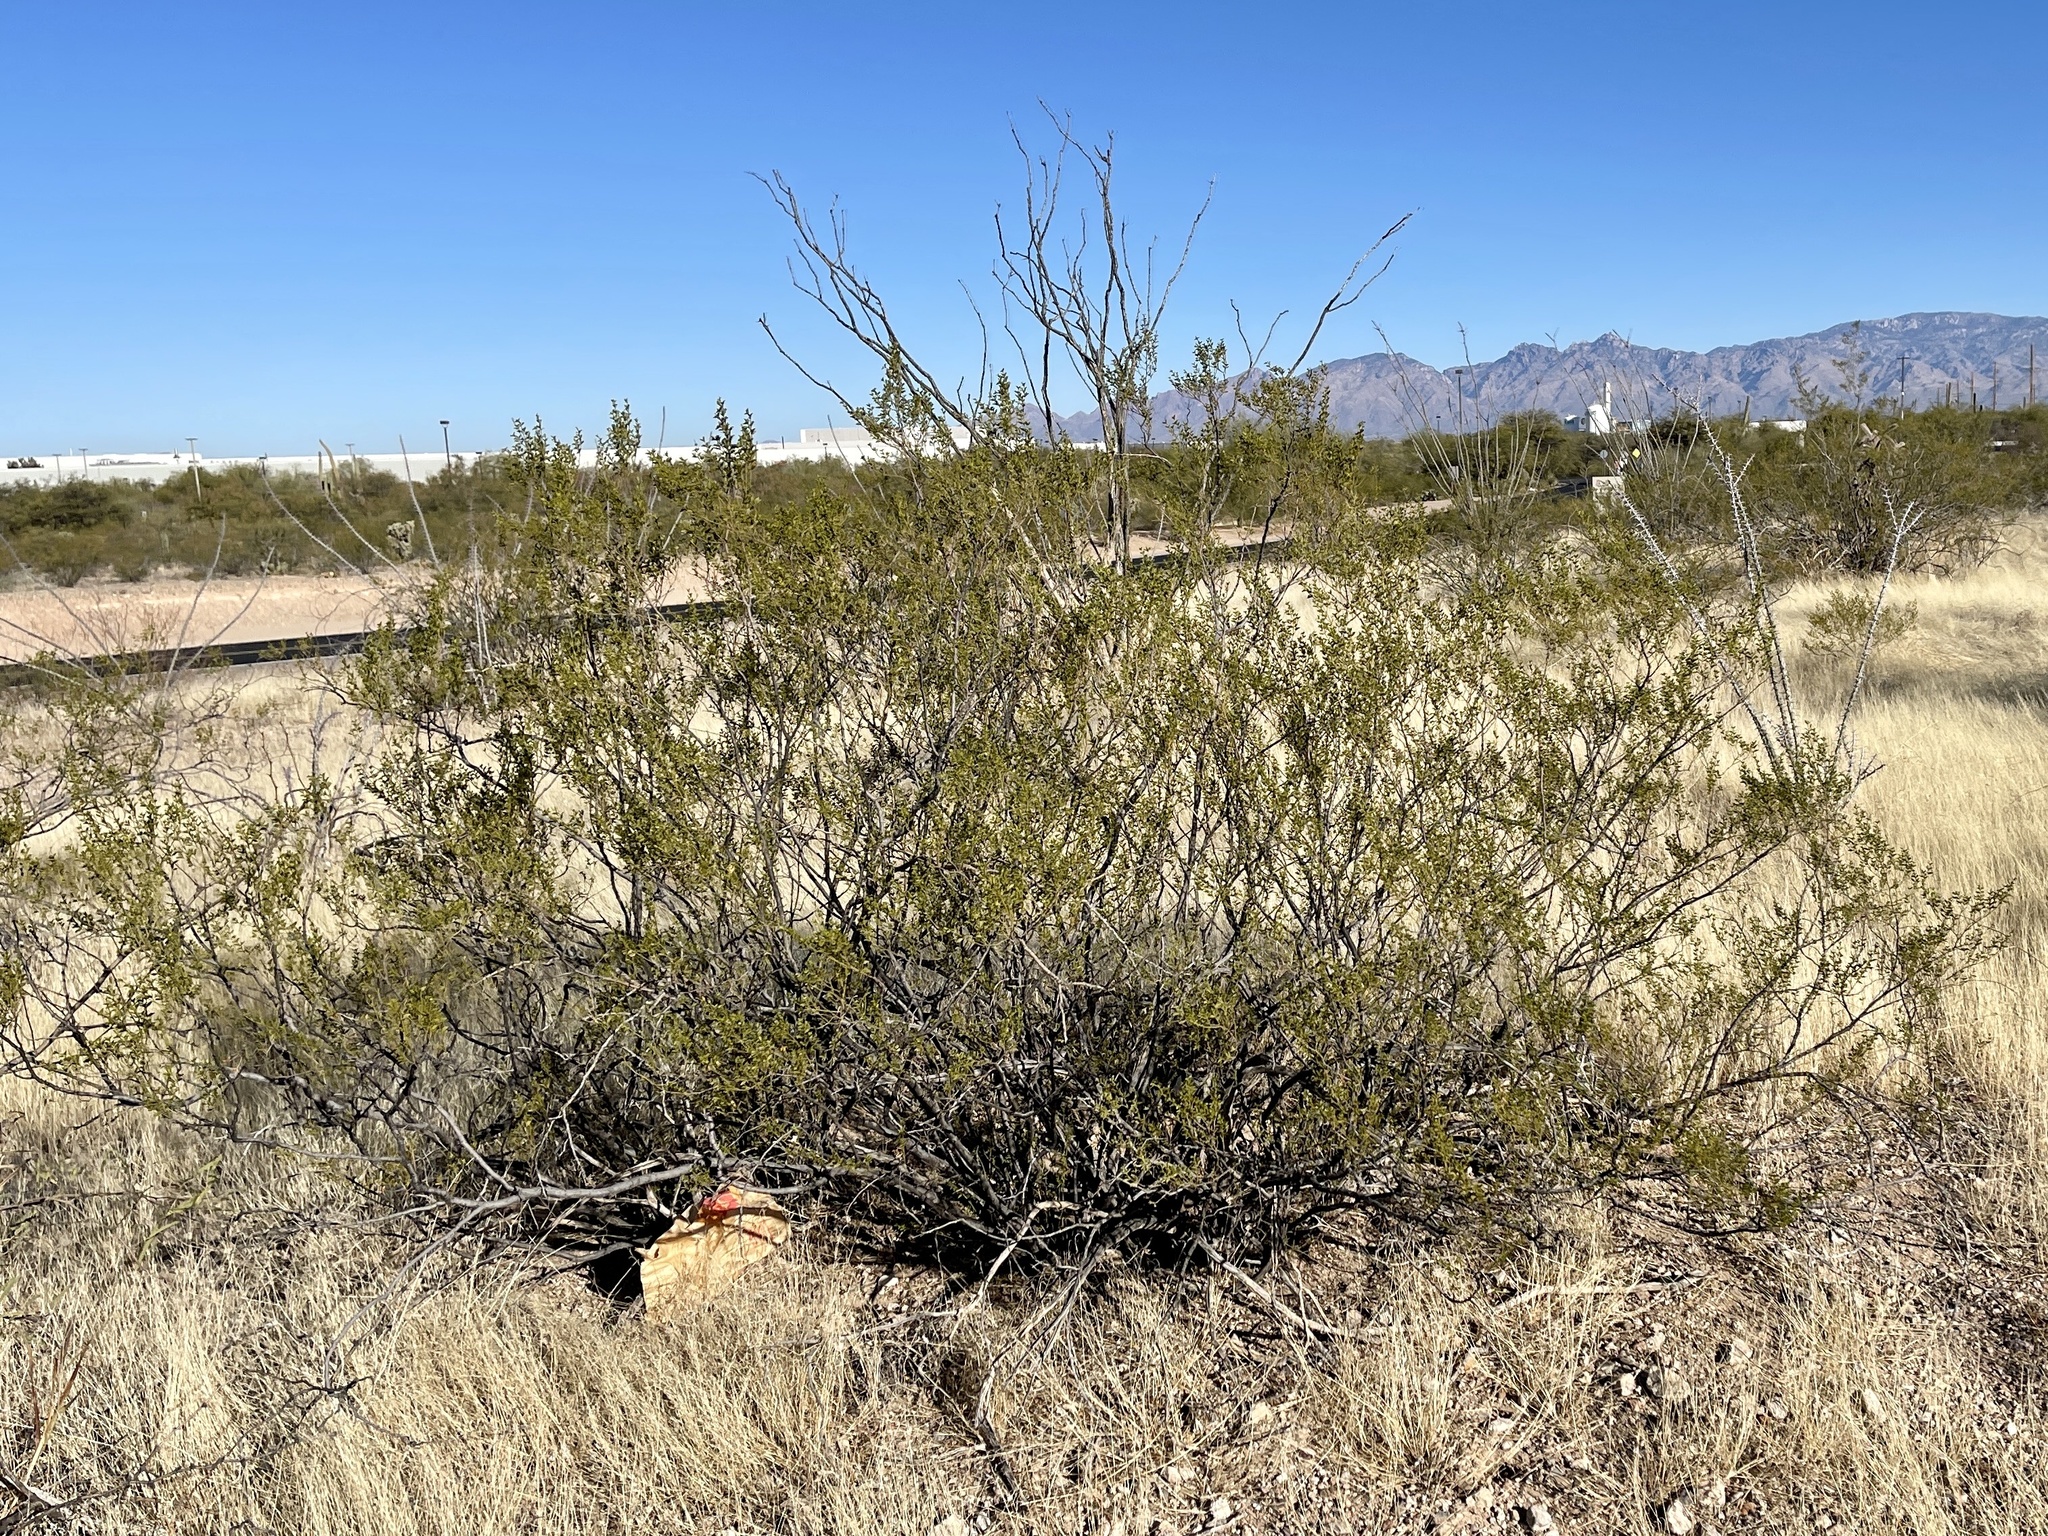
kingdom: Plantae
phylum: Tracheophyta
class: Magnoliopsida
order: Zygophyllales
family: Zygophyllaceae
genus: Larrea
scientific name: Larrea tridentata
